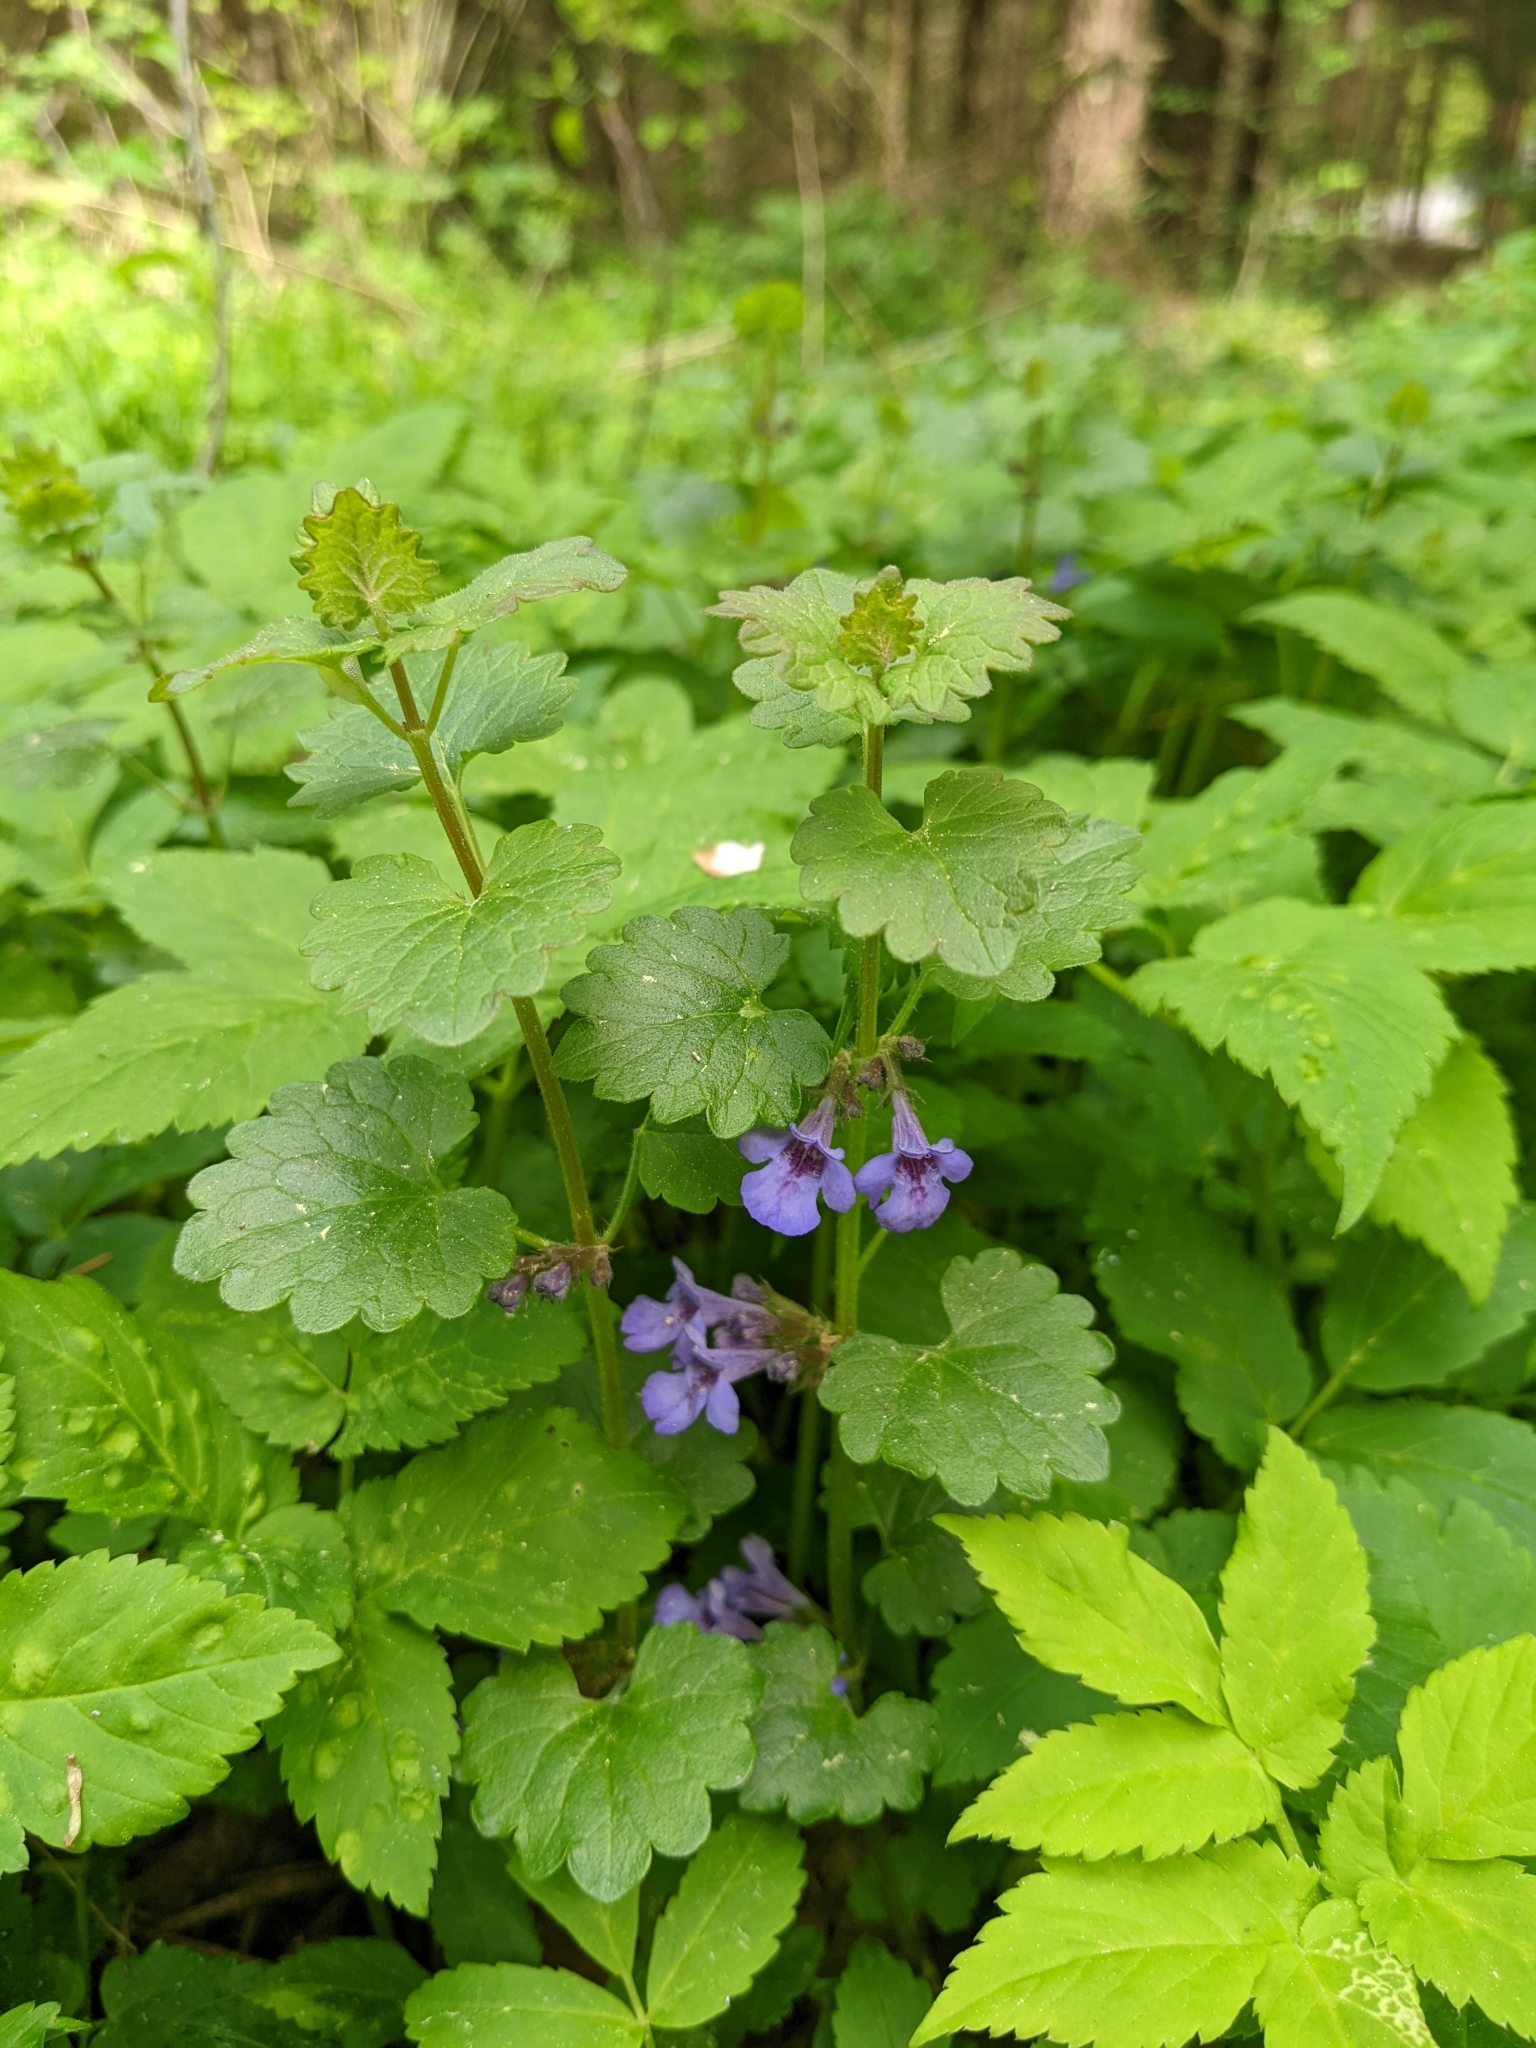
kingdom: Plantae
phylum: Tracheophyta
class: Magnoliopsida
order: Lamiales
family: Lamiaceae
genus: Glechoma
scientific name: Glechoma hederacea
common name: Ground ivy
